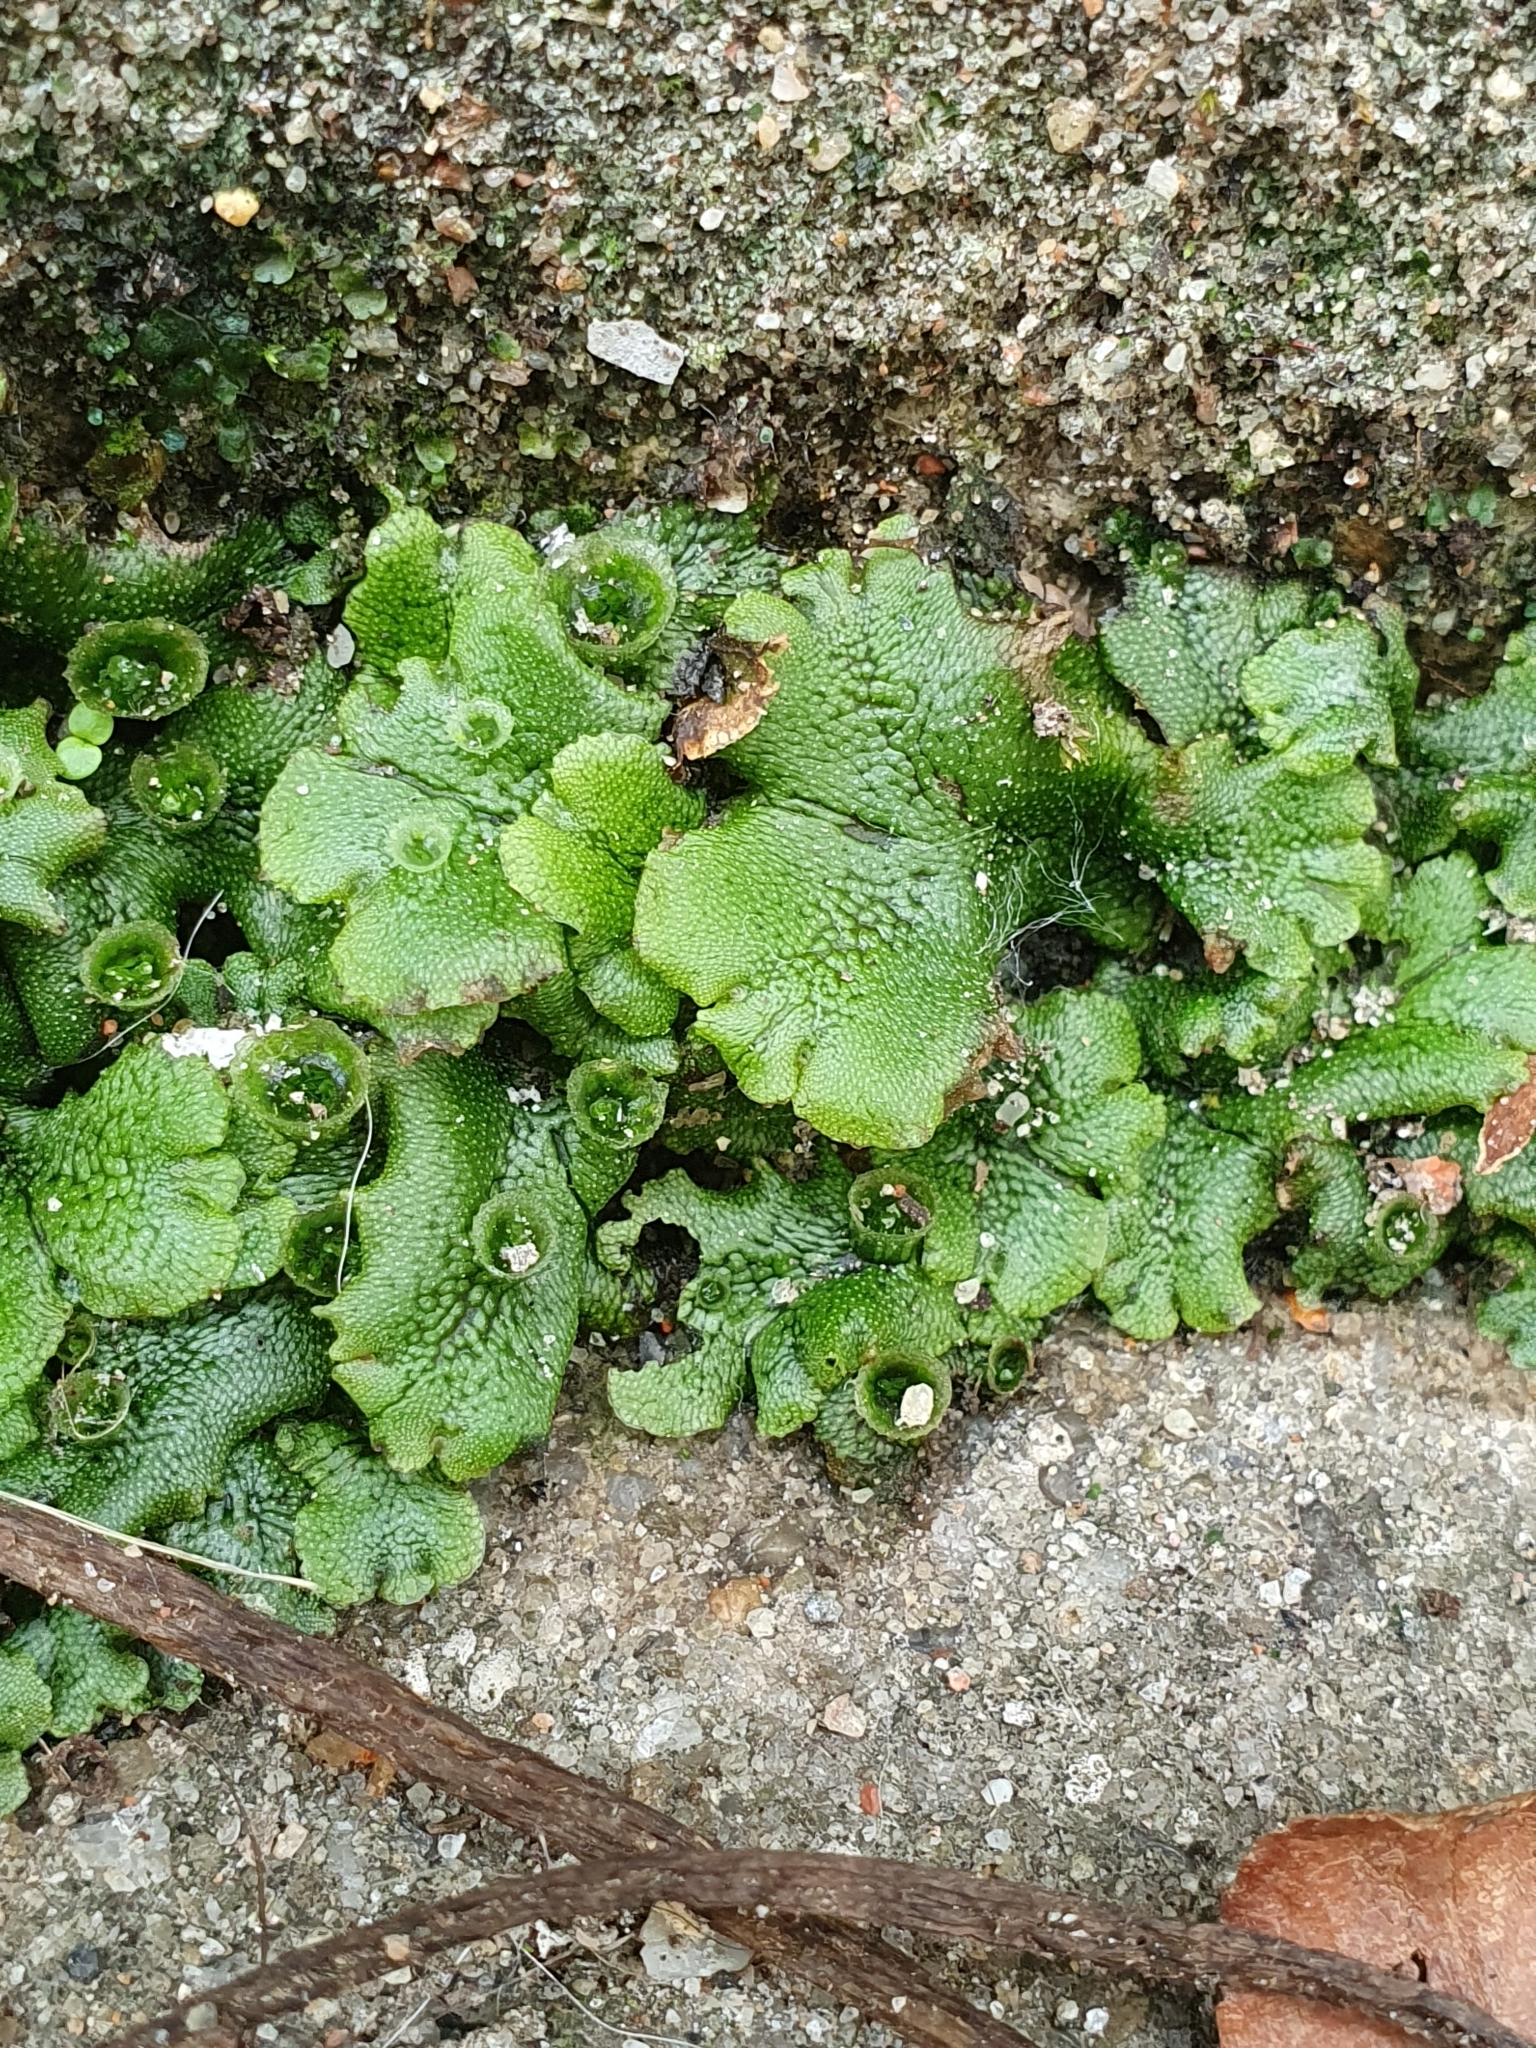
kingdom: Plantae
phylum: Marchantiophyta
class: Marchantiopsida
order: Marchantiales
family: Marchantiaceae
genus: Marchantia
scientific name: Marchantia polymorpha
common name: Common liverwort
